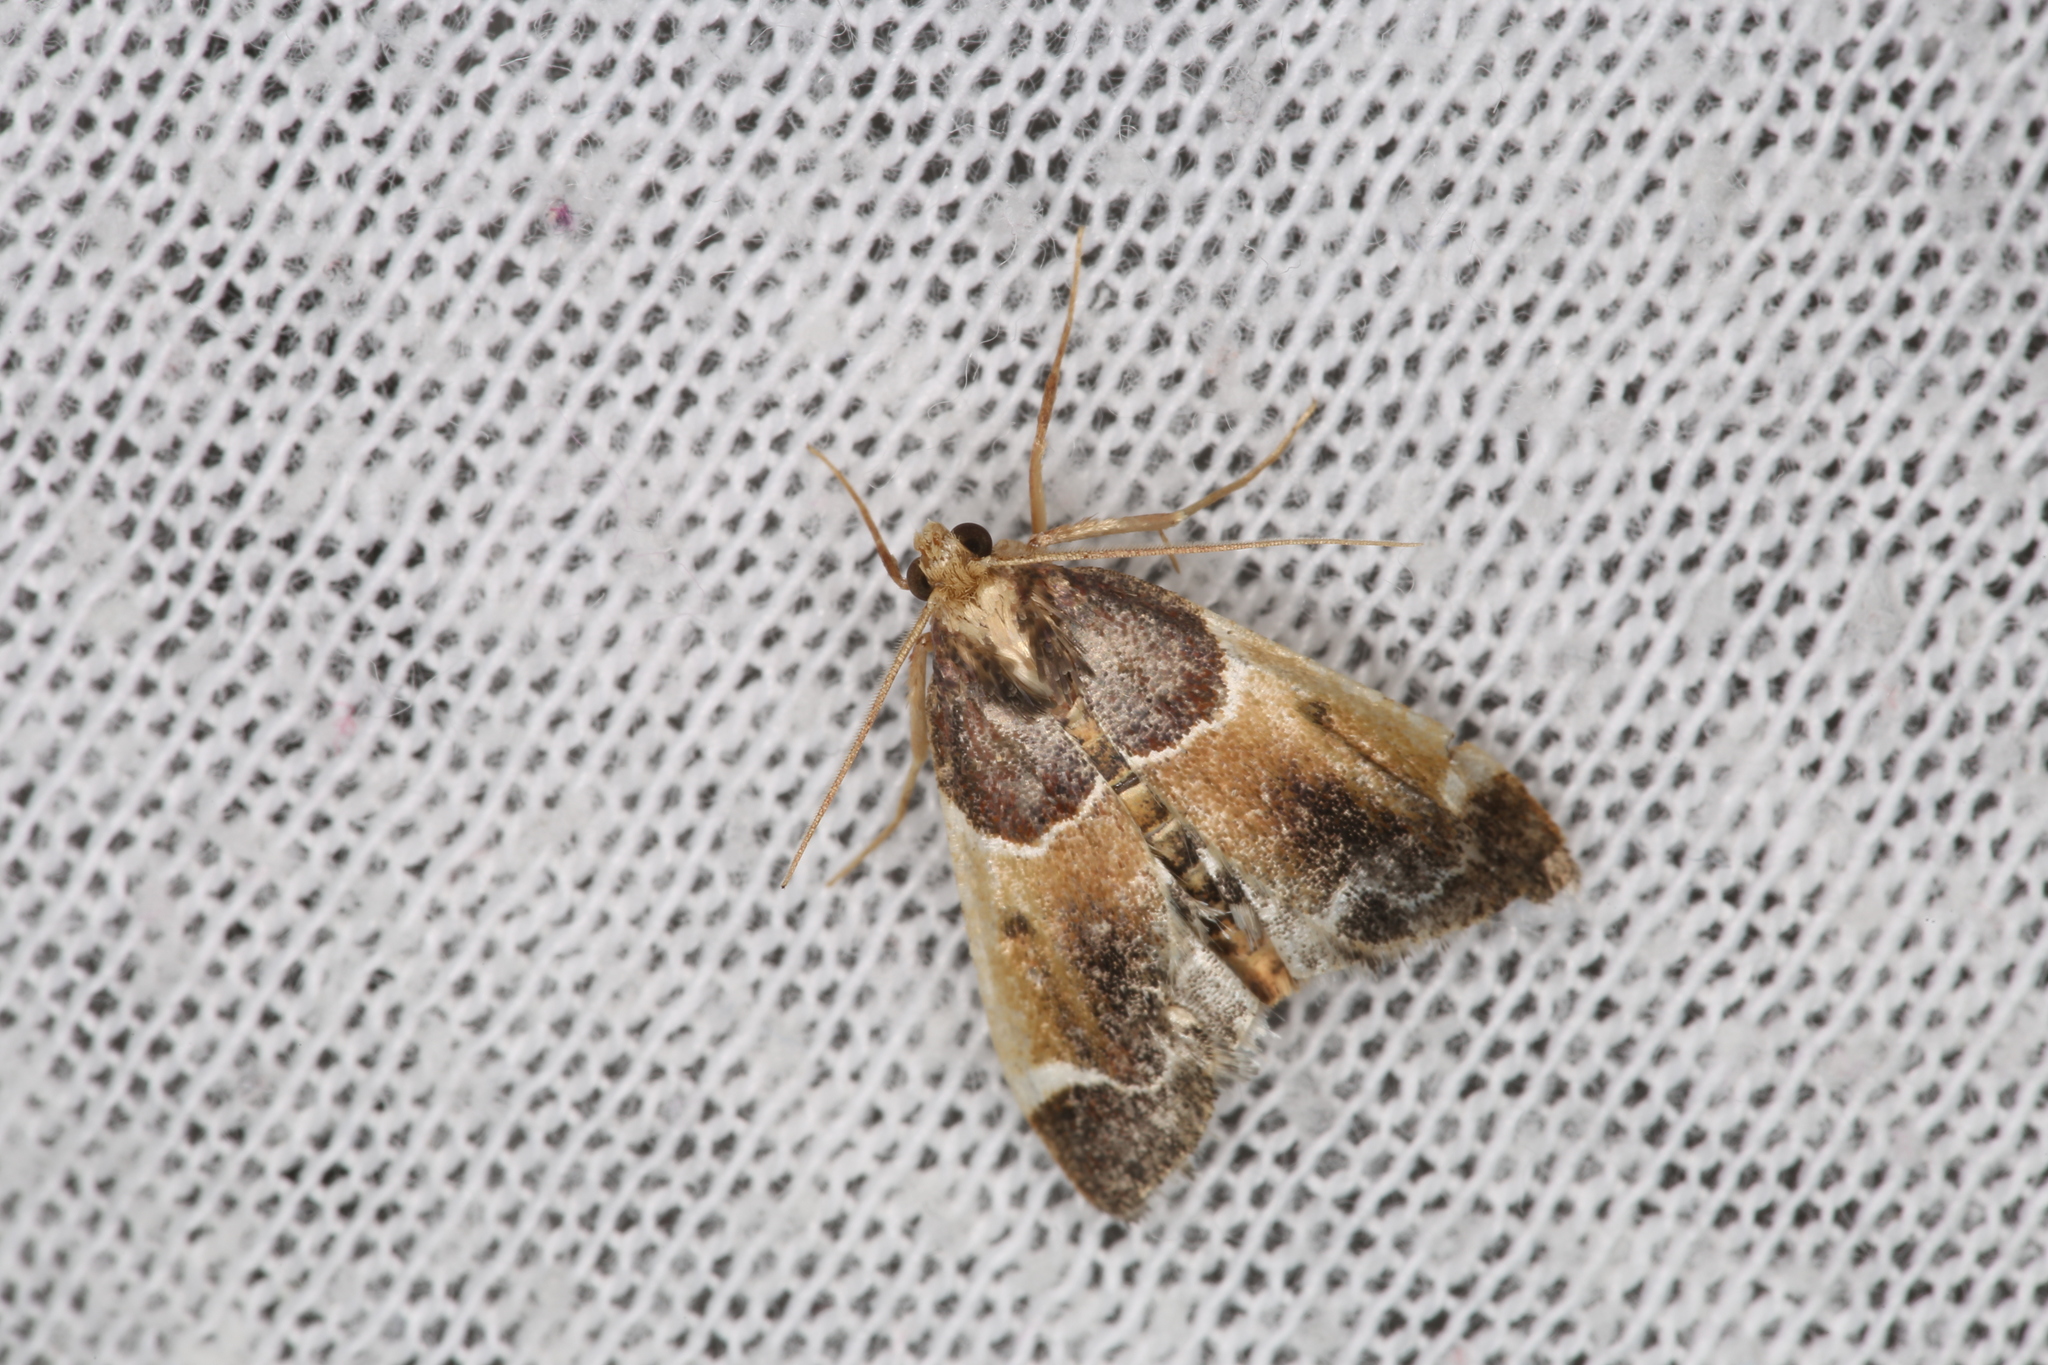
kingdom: Animalia
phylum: Arthropoda
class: Insecta
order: Lepidoptera
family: Pyralidae
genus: Pyralis
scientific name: Pyralis farinalis
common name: Meal moth
